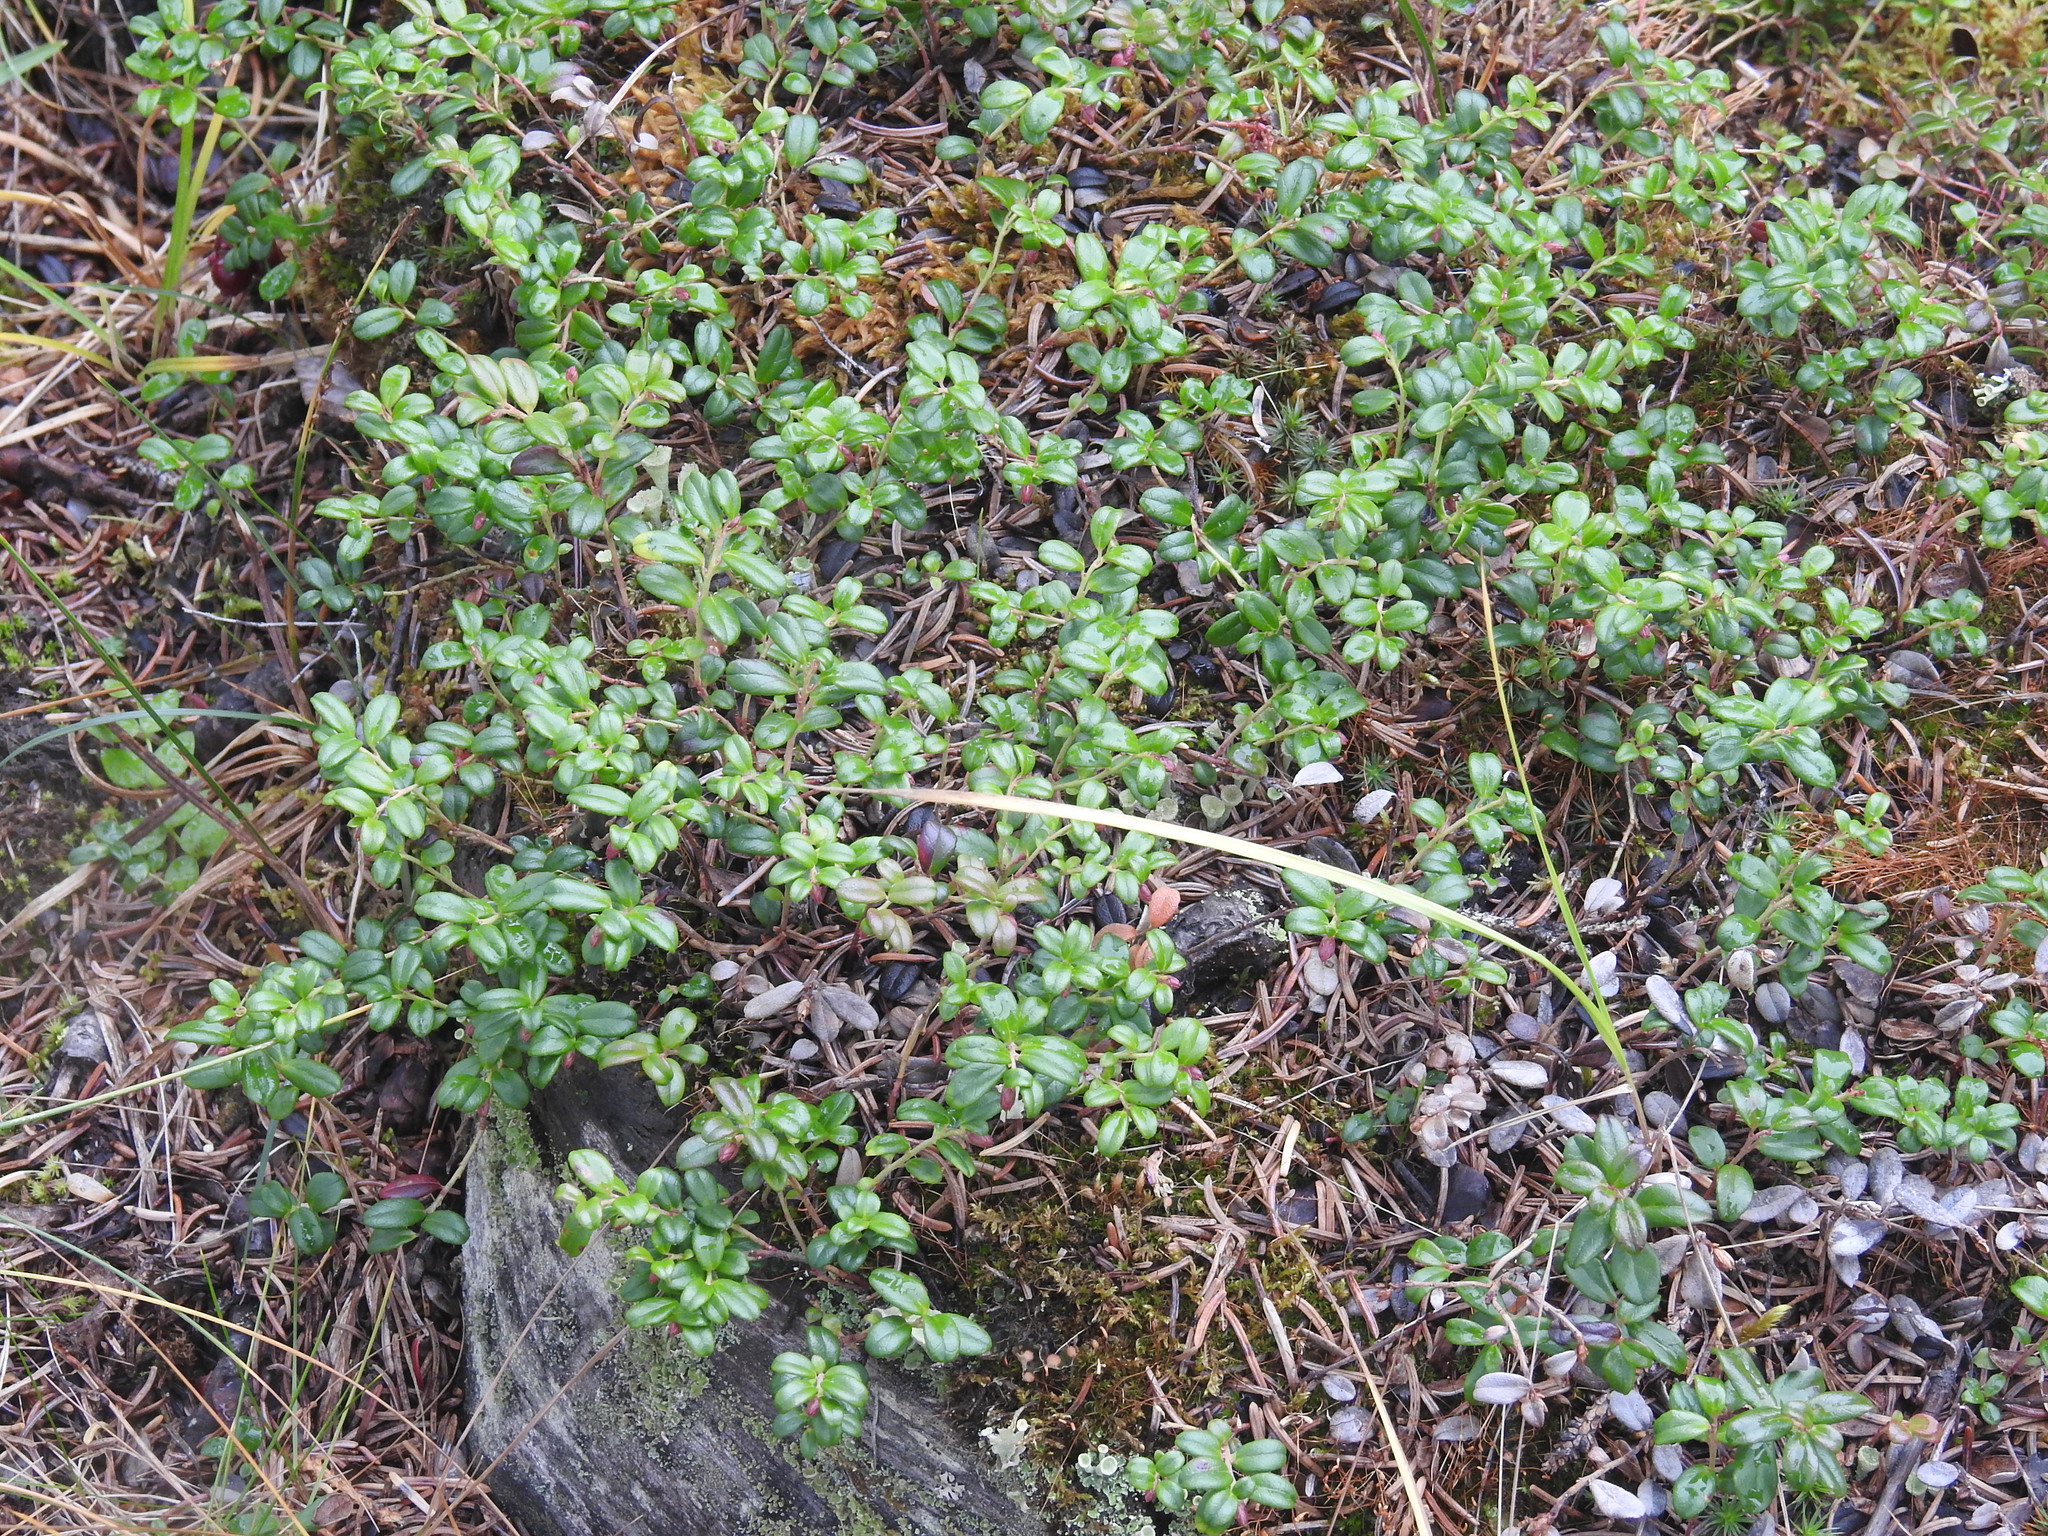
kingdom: Plantae
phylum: Tracheophyta
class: Magnoliopsida
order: Ericales
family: Ericaceae
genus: Vaccinium
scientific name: Vaccinium vitis-idaea
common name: Cowberry
